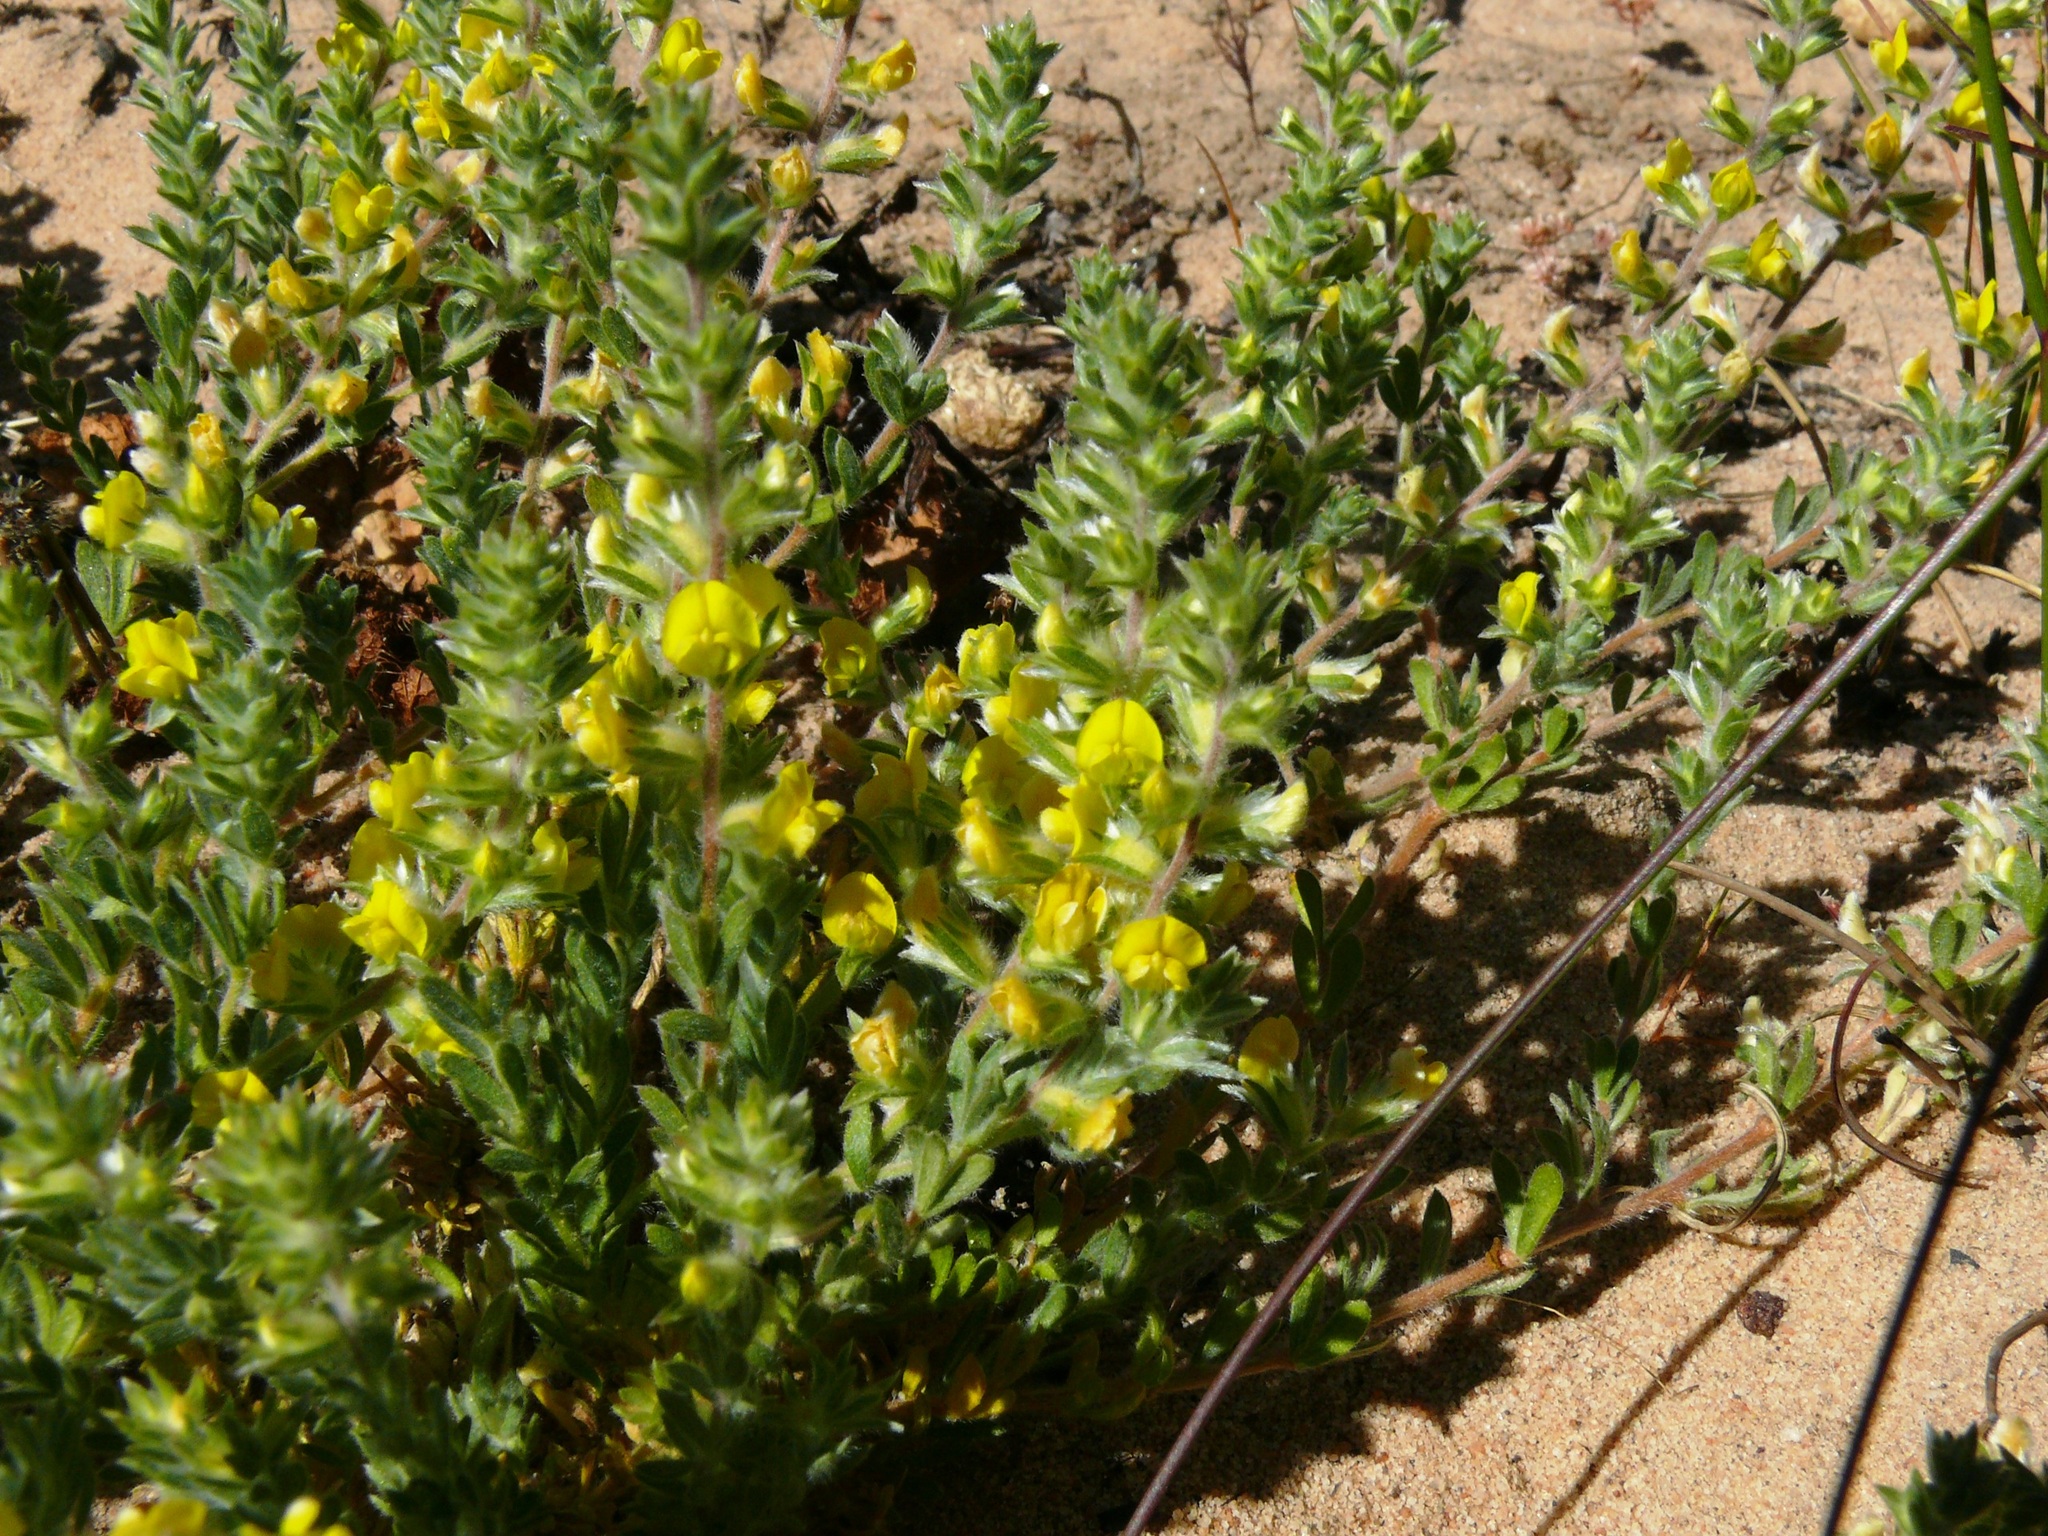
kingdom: Plantae
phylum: Tracheophyta
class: Magnoliopsida
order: Fabales
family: Fabaceae
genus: Aspalathus
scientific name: Aspalathus heterophylla
